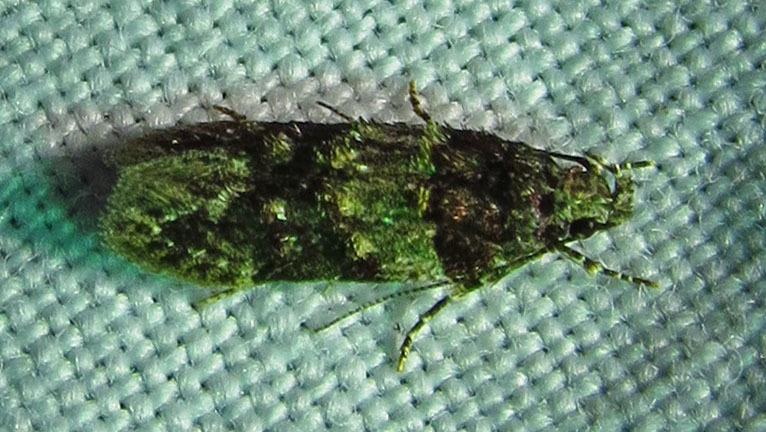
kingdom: Animalia
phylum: Arthropoda
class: Insecta
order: Lepidoptera
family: Gelechiidae
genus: Pubitelphusa
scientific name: Pubitelphusa latifasciella
